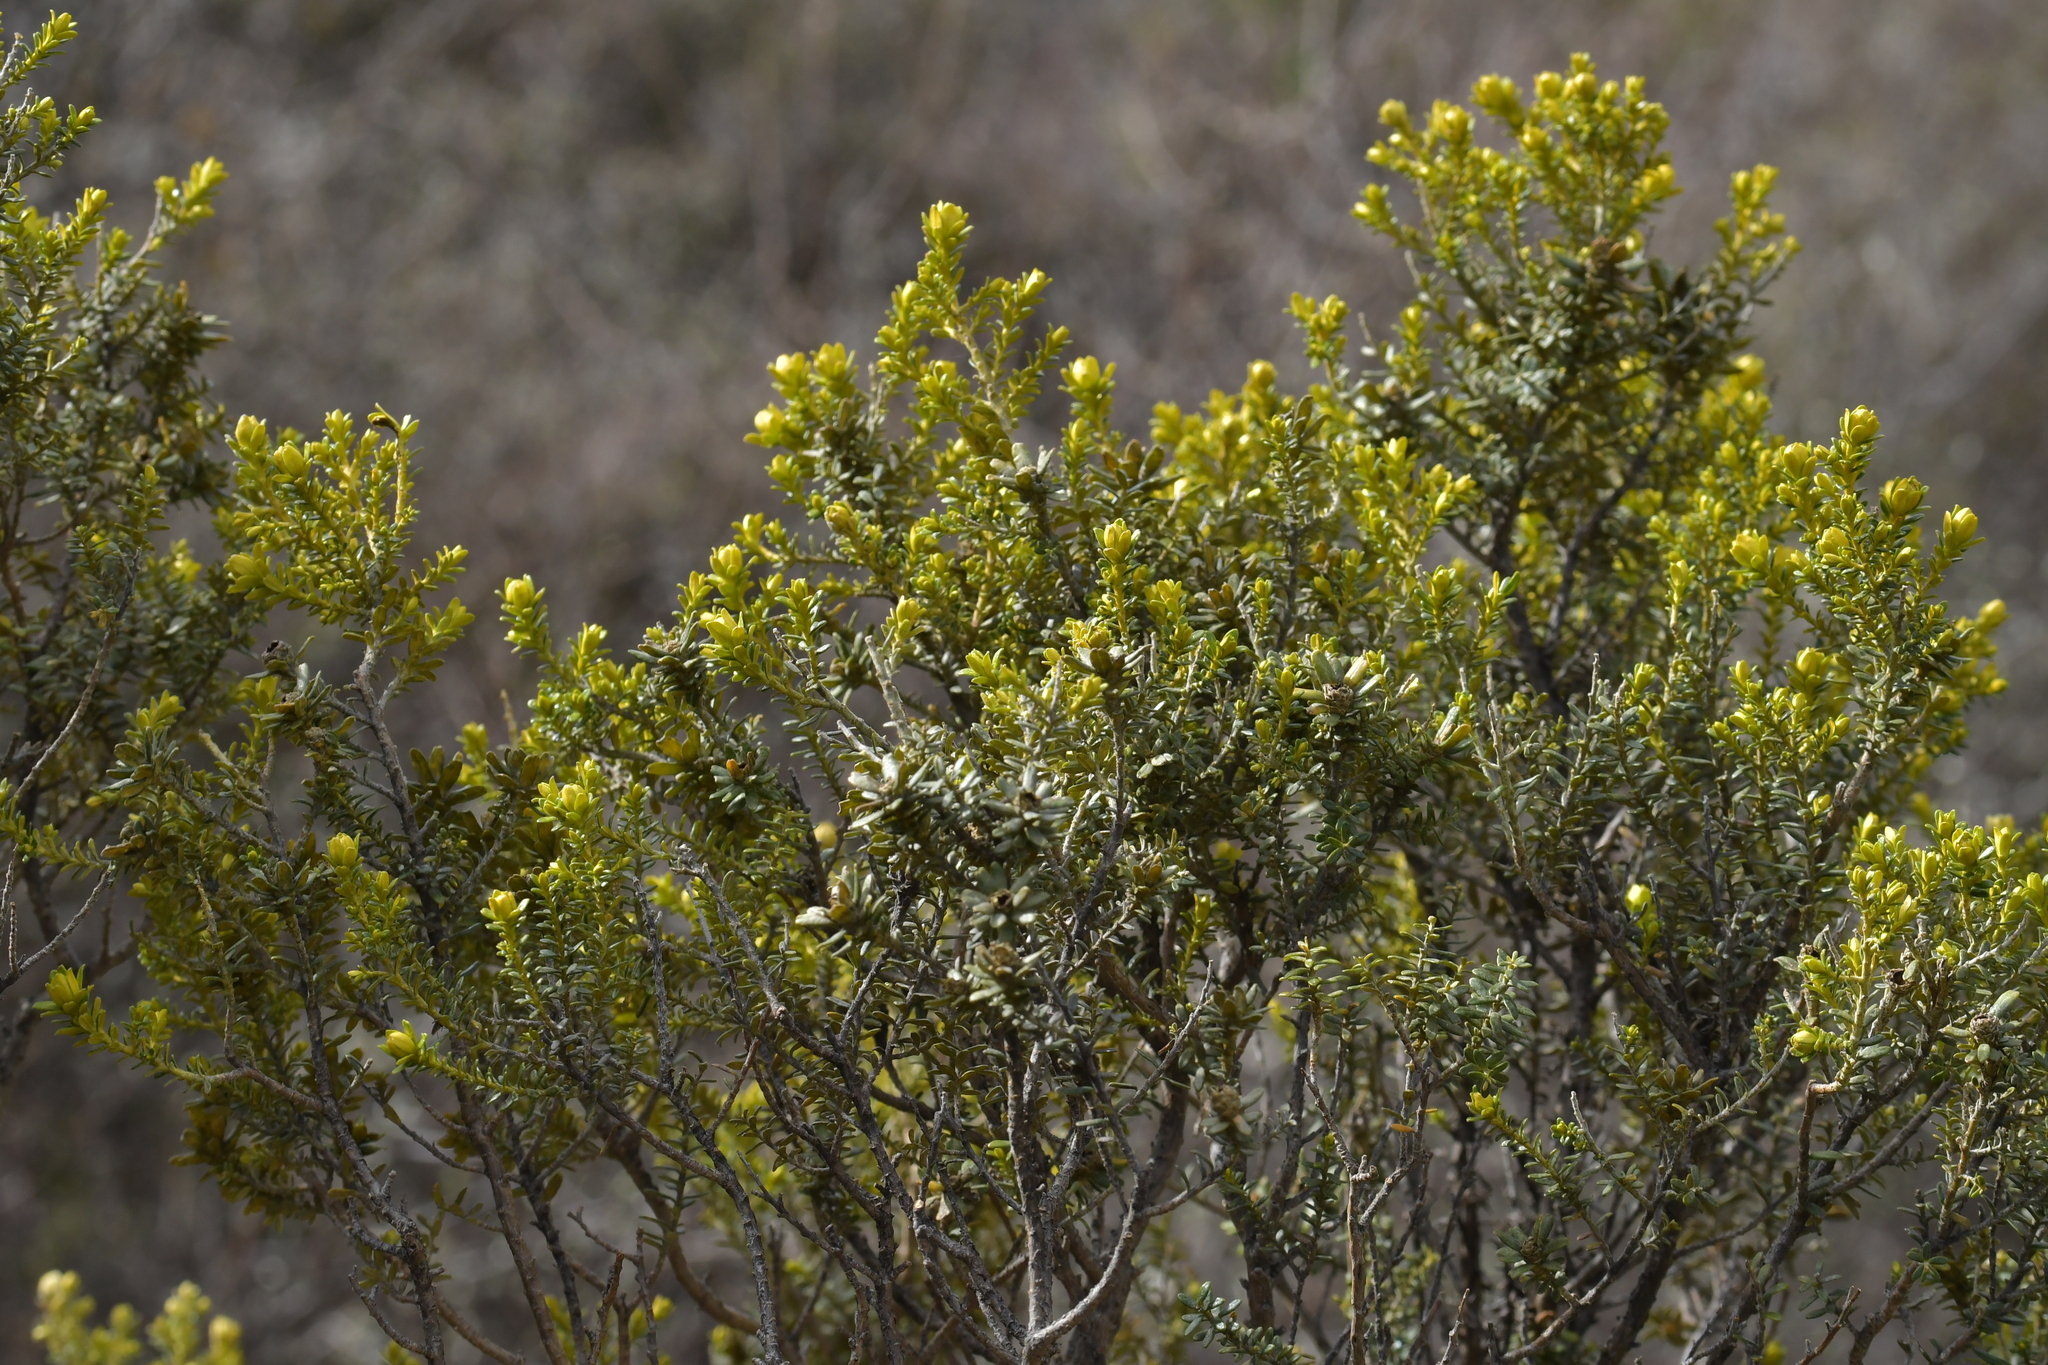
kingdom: Plantae
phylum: Tracheophyta
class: Magnoliopsida
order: Asterales
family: Asteraceae
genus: Ozothamnus
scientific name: Ozothamnus leptophyllus
